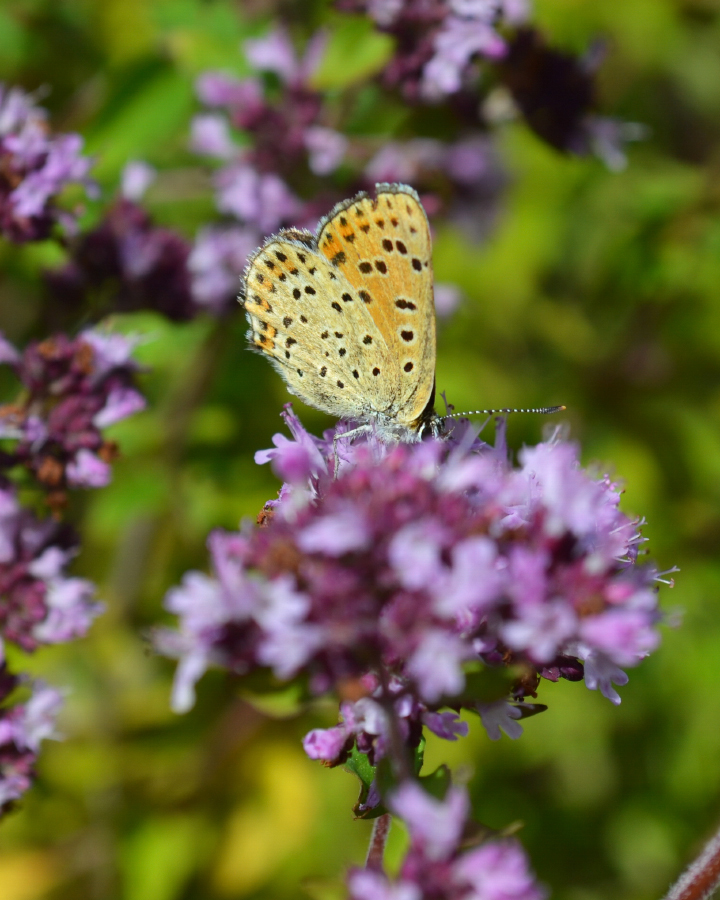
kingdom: Animalia
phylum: Arthropoda
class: Insecta
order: Lepidoptera
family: Lycaenidae
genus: Loweia
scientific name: Loweia tityrus
